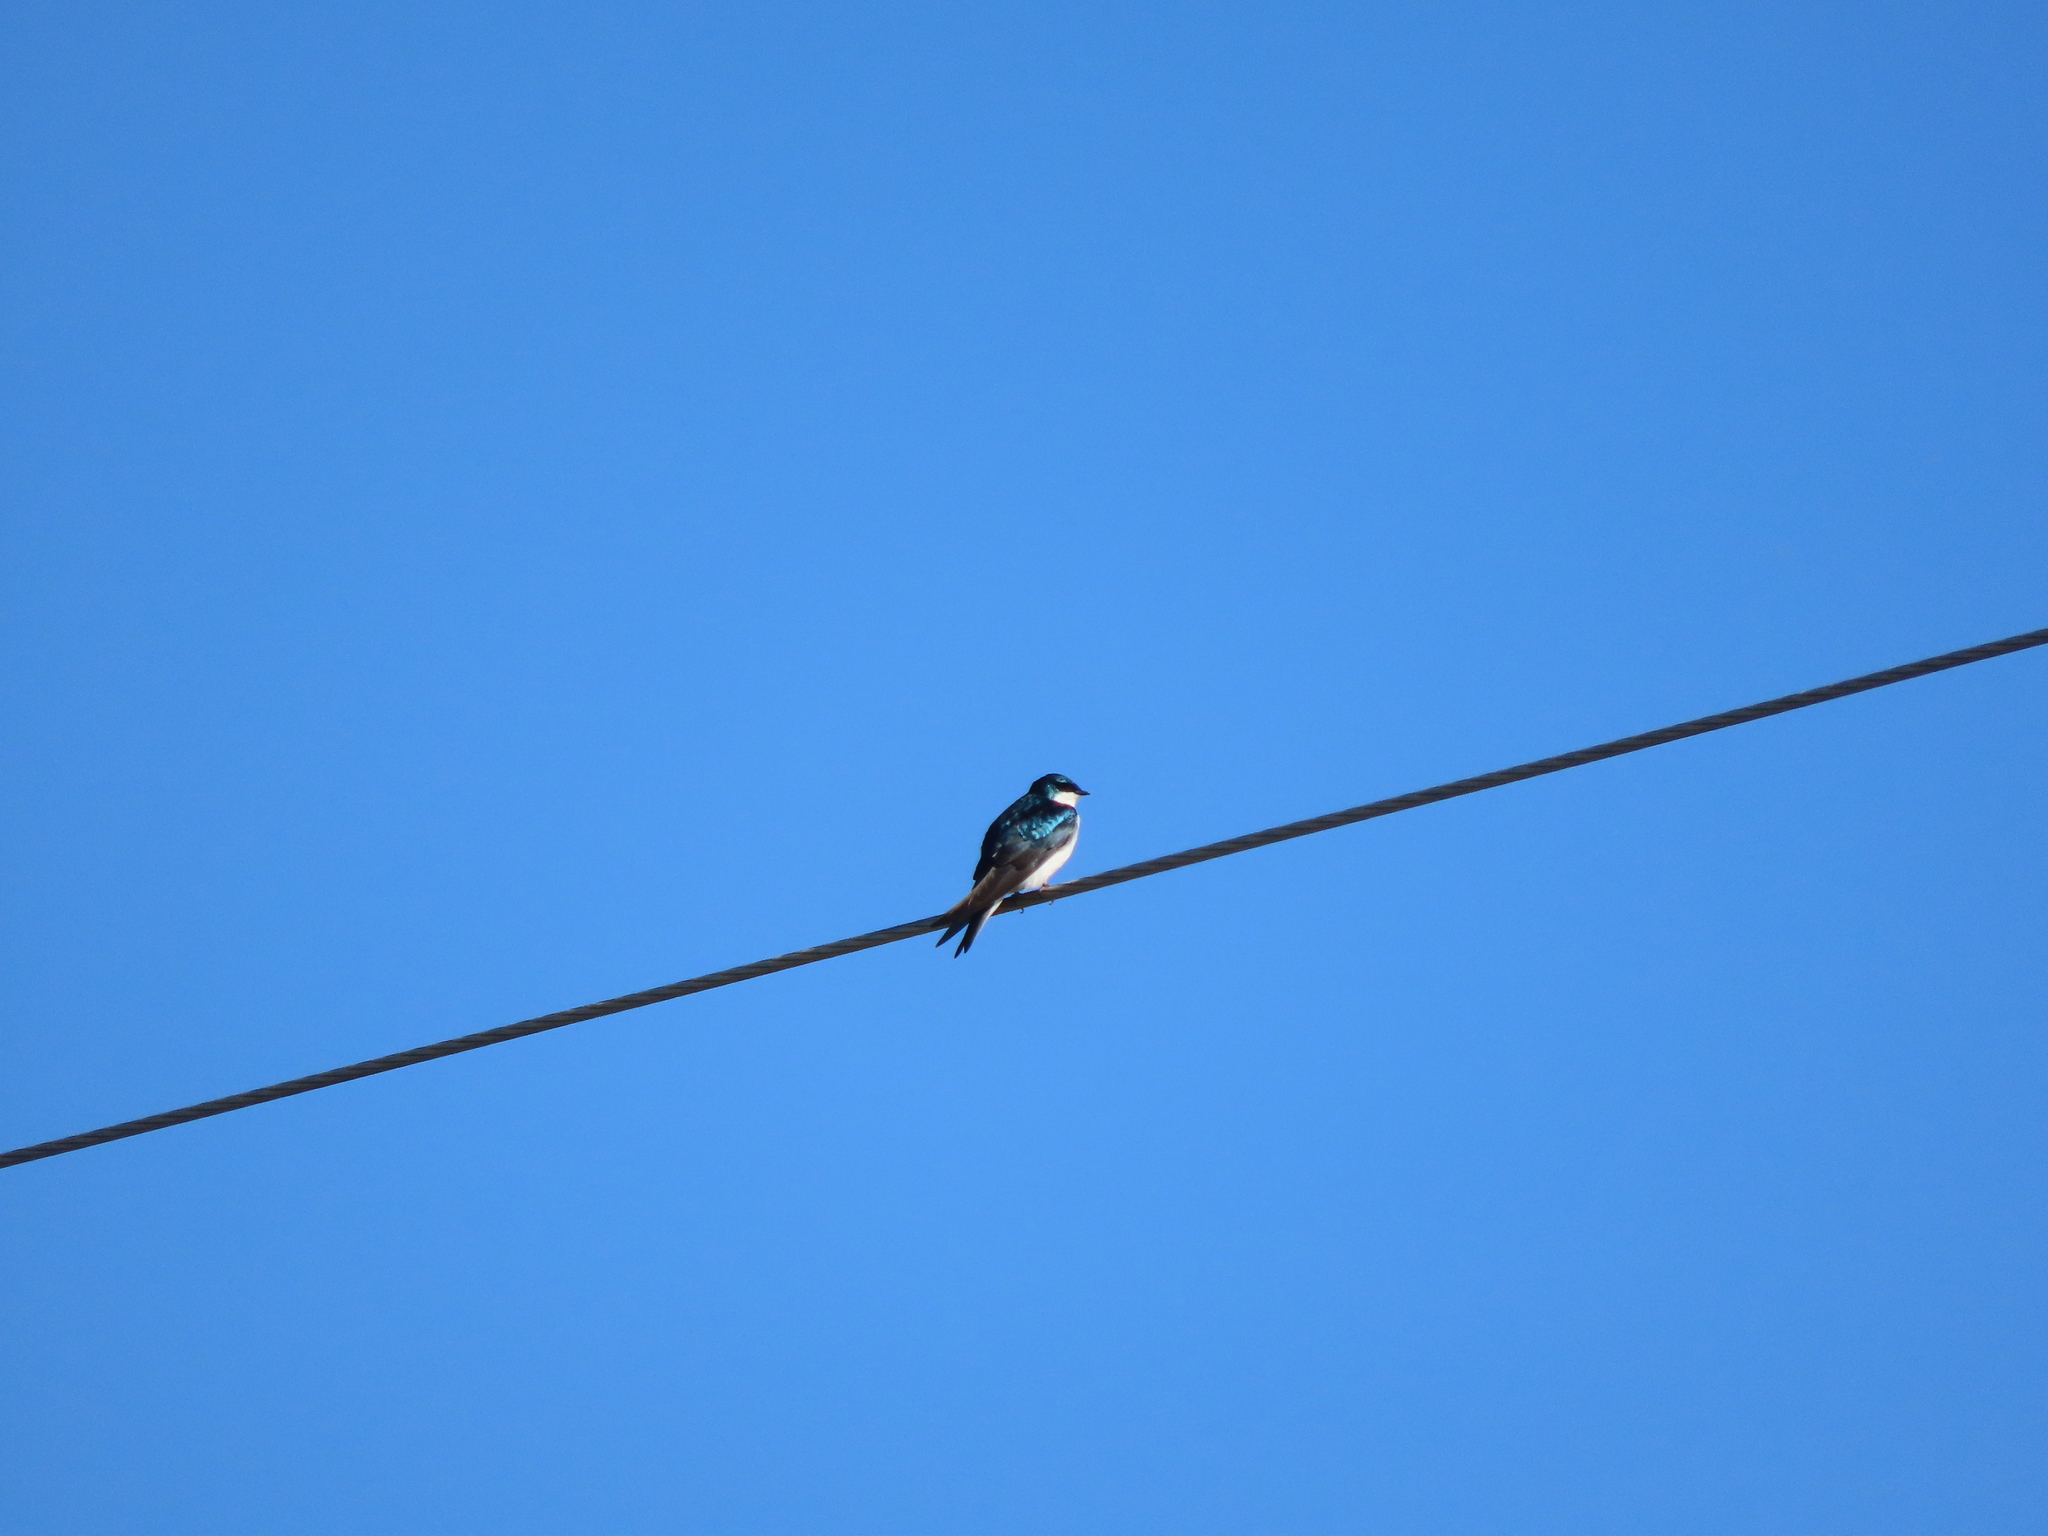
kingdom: Animalia
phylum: Chordata
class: Aves
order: Passeriformes
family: Hirundinidae
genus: Tachycineta
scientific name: Tachycineta bicolor
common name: Tree swallow
